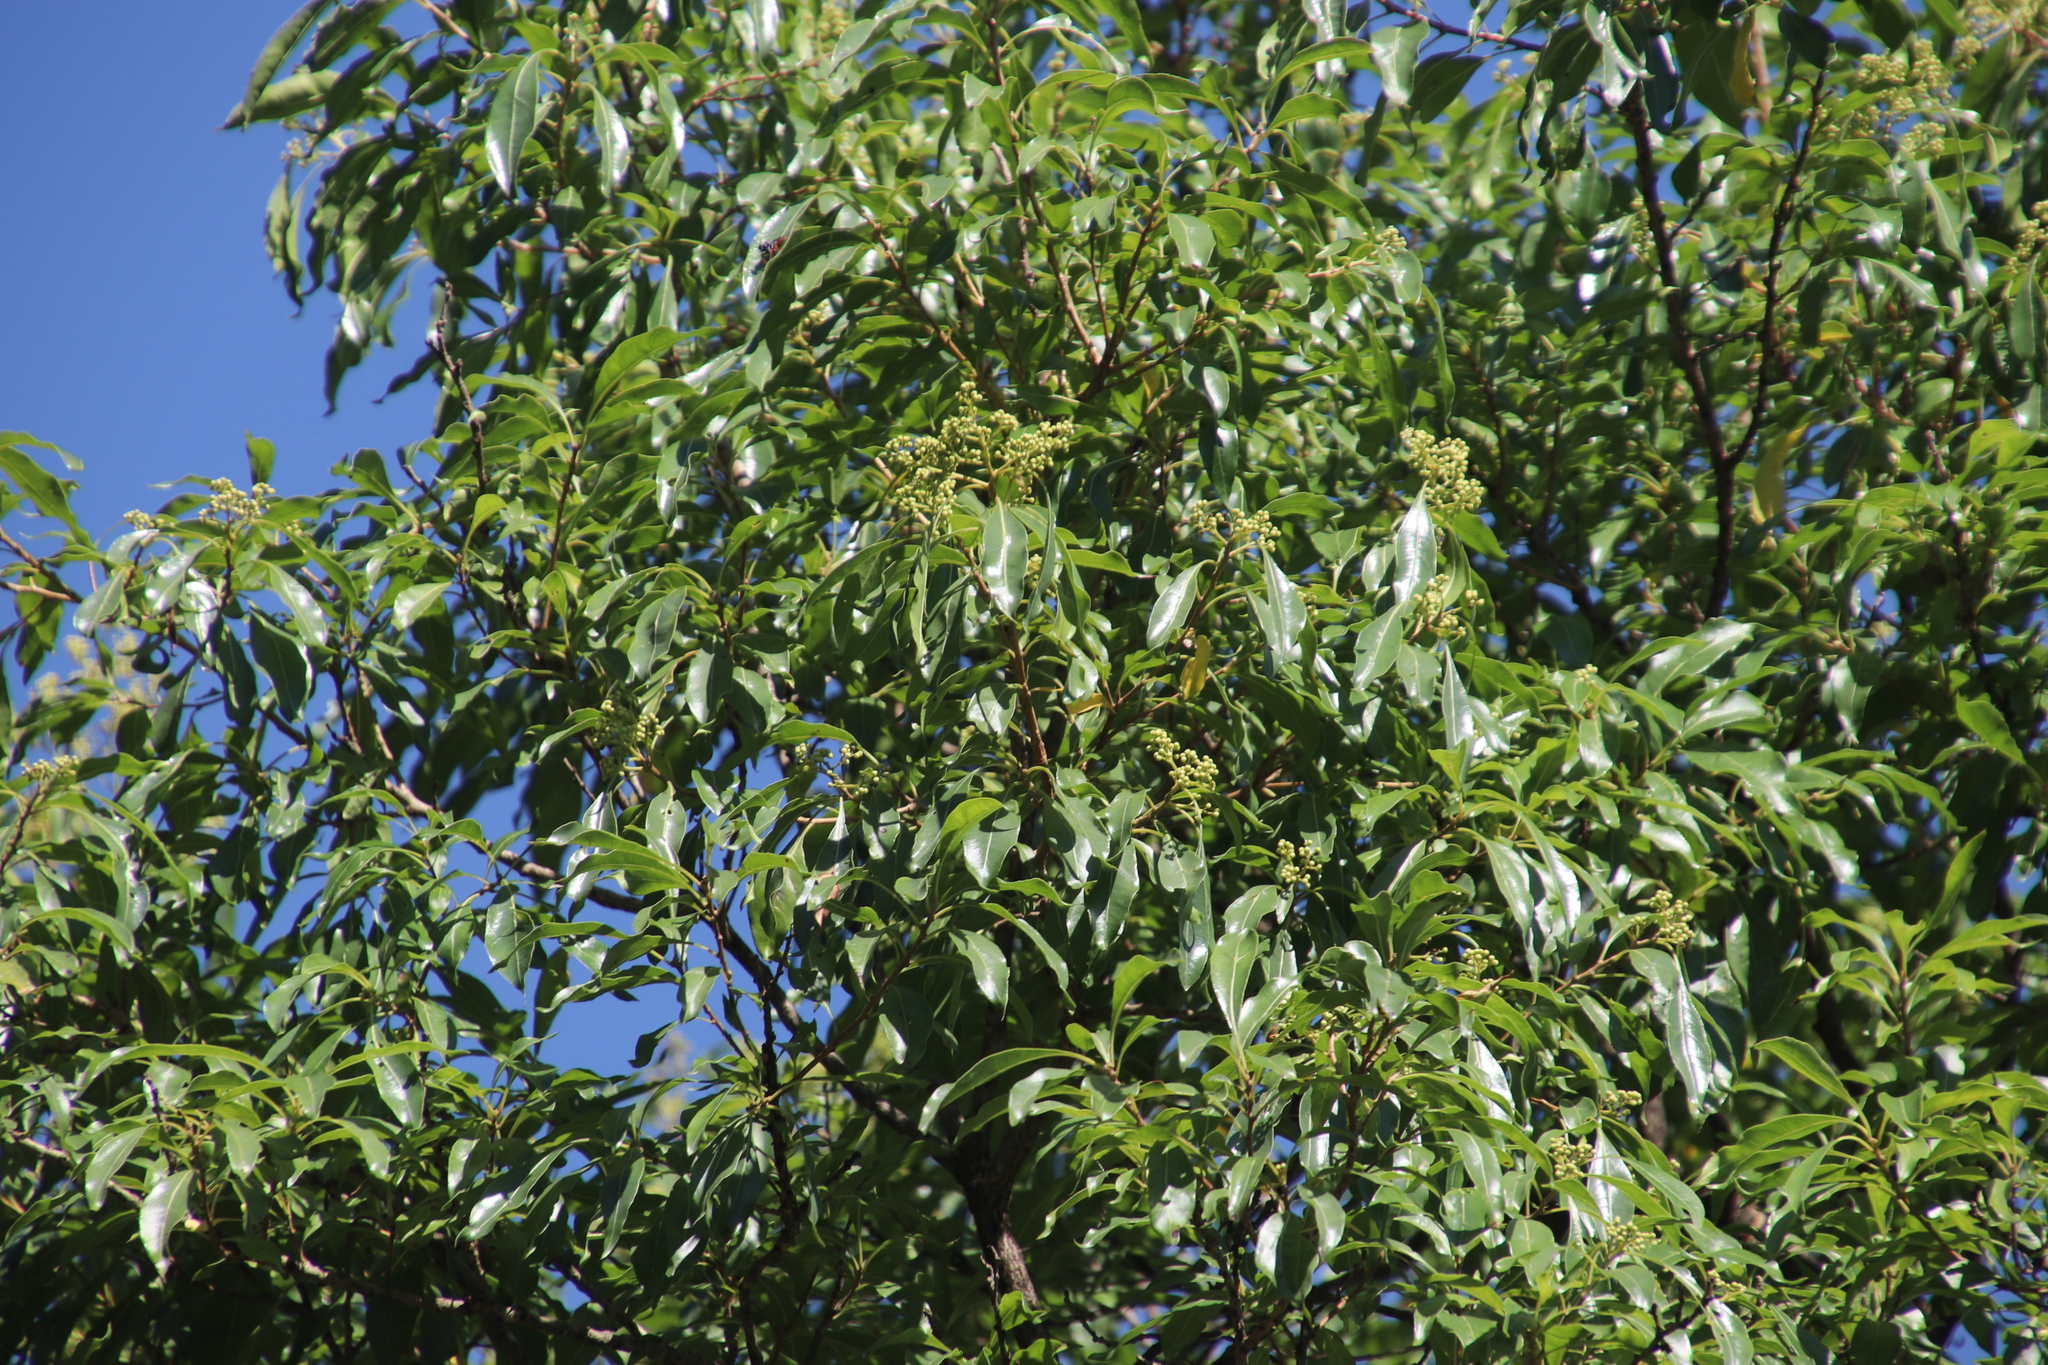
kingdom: Plantae
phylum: Tracheophyta
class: Magnoliopsida
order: Myrtales
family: Myrtaceae
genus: Heteropyxis
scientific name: Heteropyxis natalensis
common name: Lavender tree
